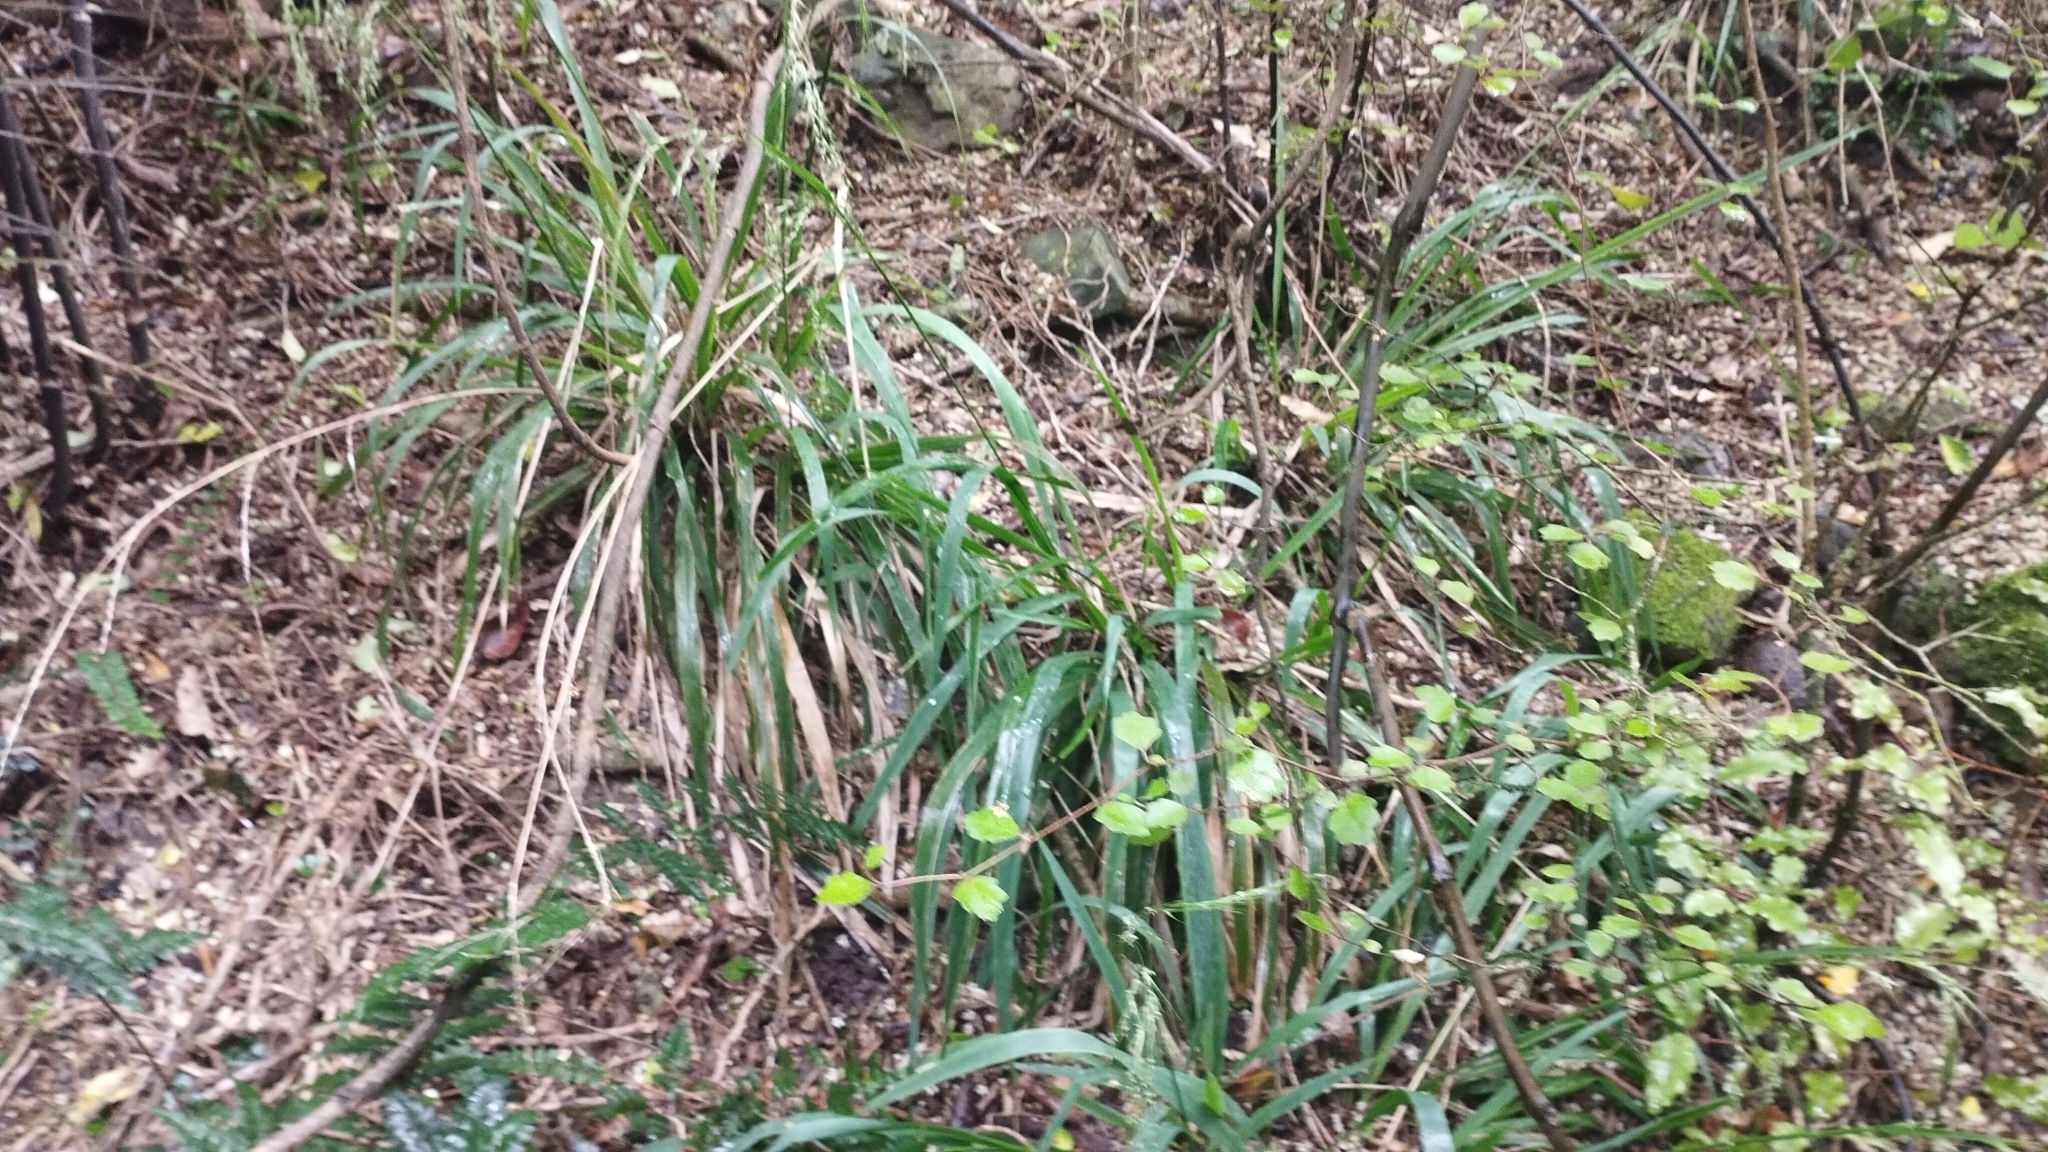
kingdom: Plantae
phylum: Tracheophyta
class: Liliopsida
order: Poales
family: Poaceae
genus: Ehrharta
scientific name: Ehrharta diplax
